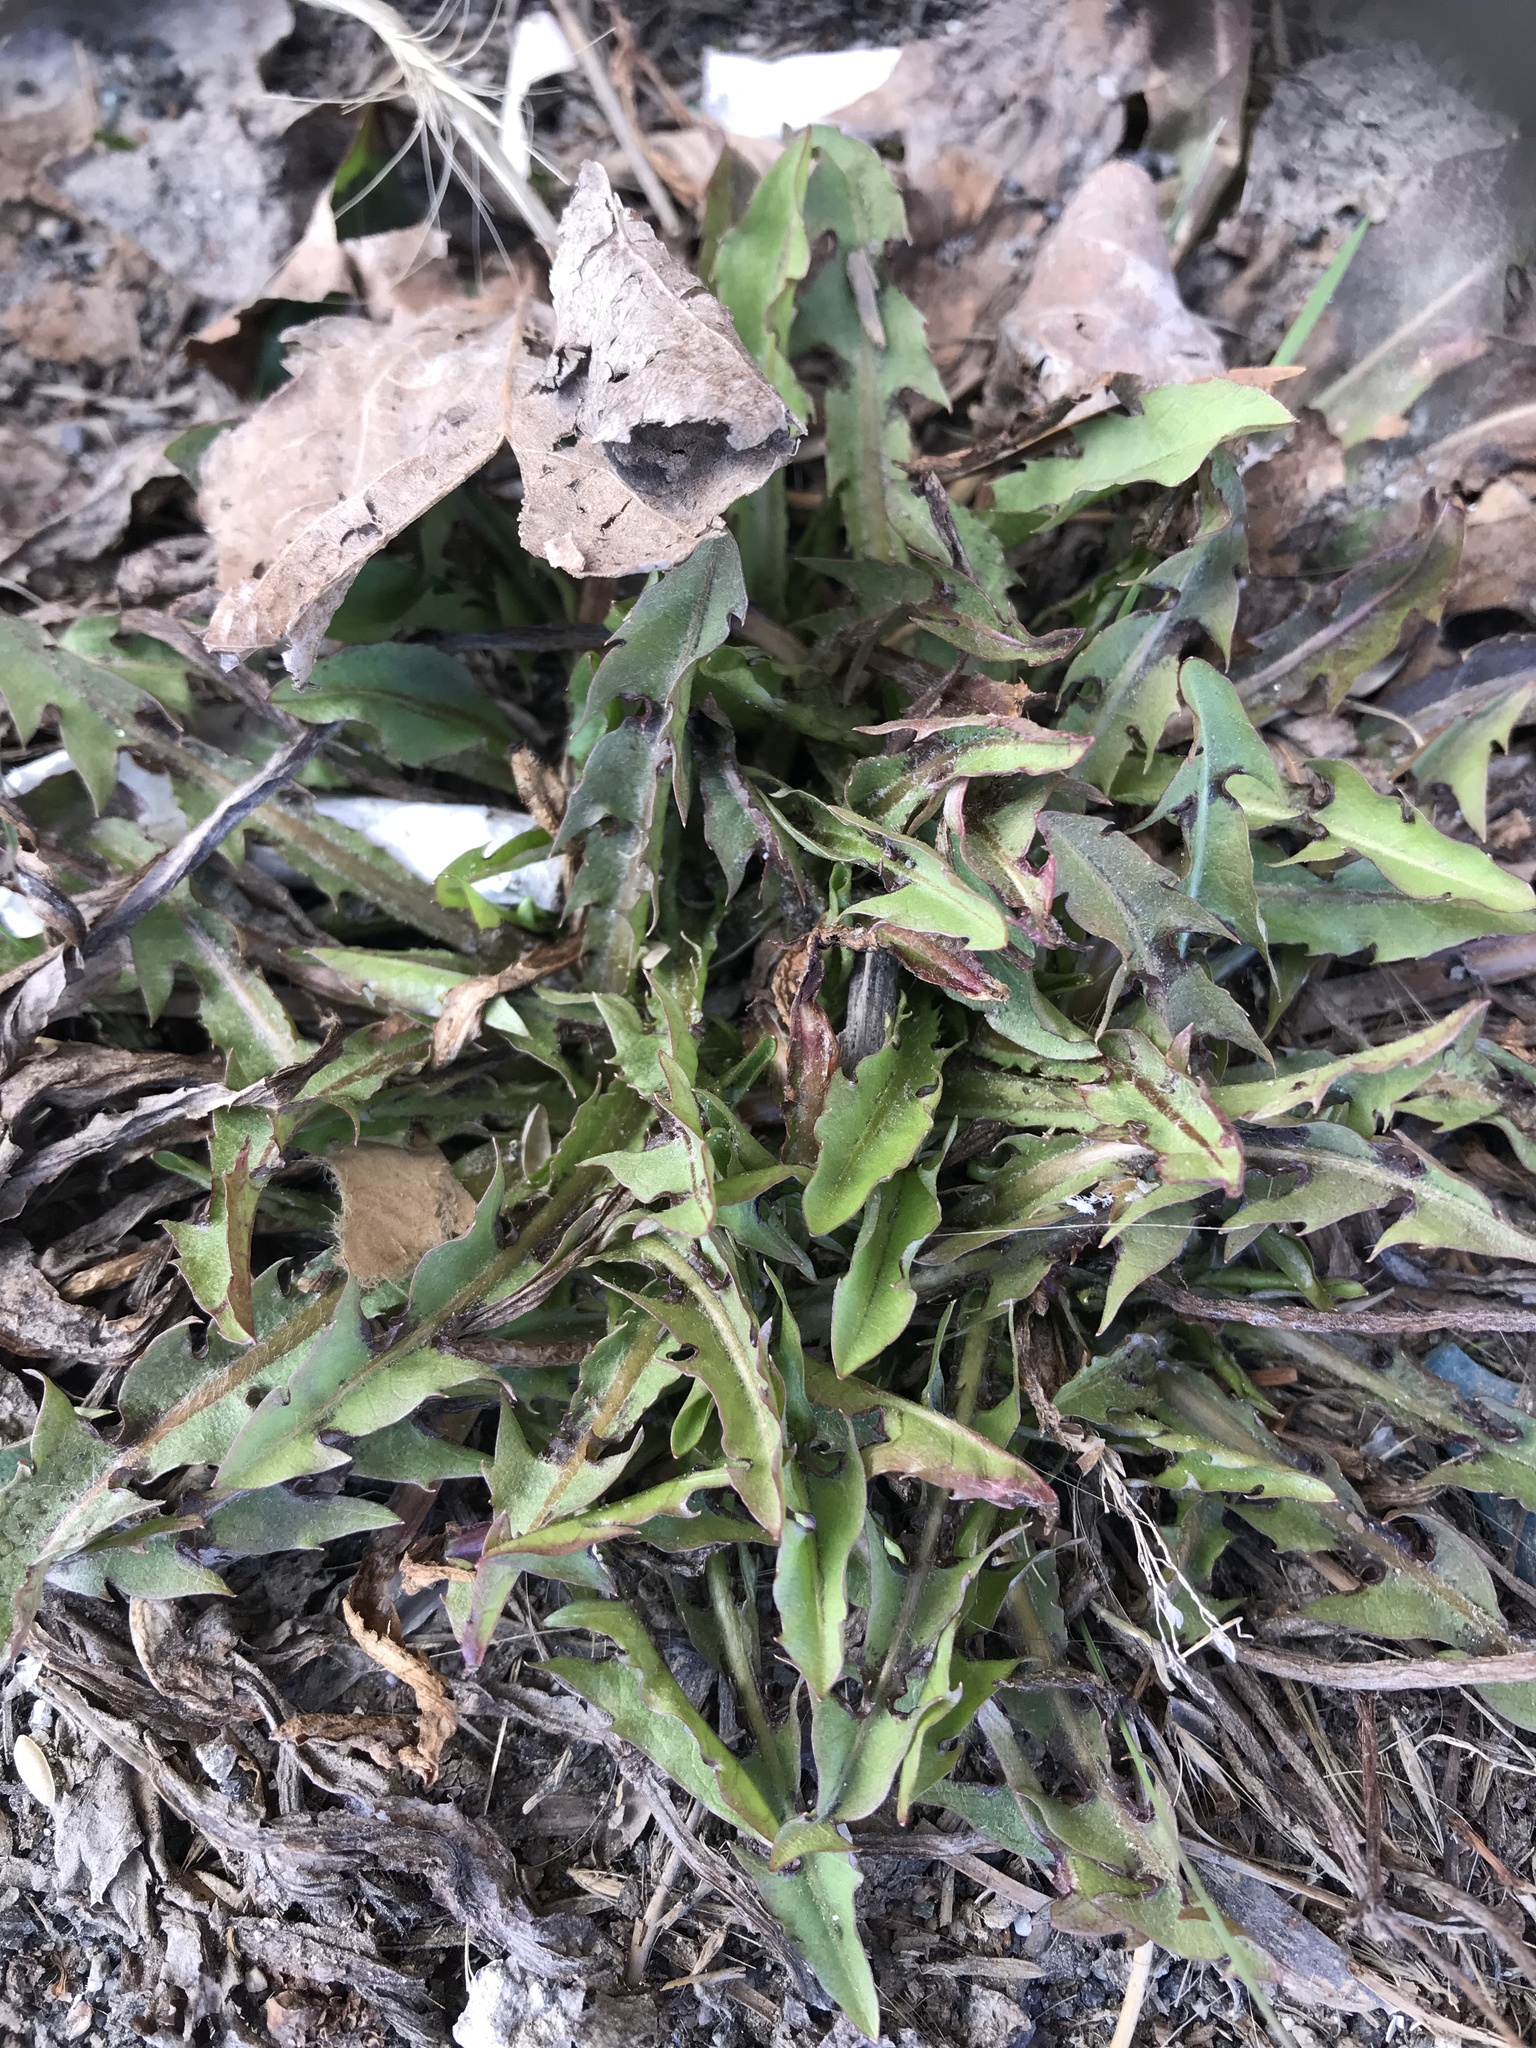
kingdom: Plantae
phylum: Tracheophyta
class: Magnoliopsida
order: Asterales
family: Asteraceae
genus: Taraxacum
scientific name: Taraxacum officinale
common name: Common dandelion
